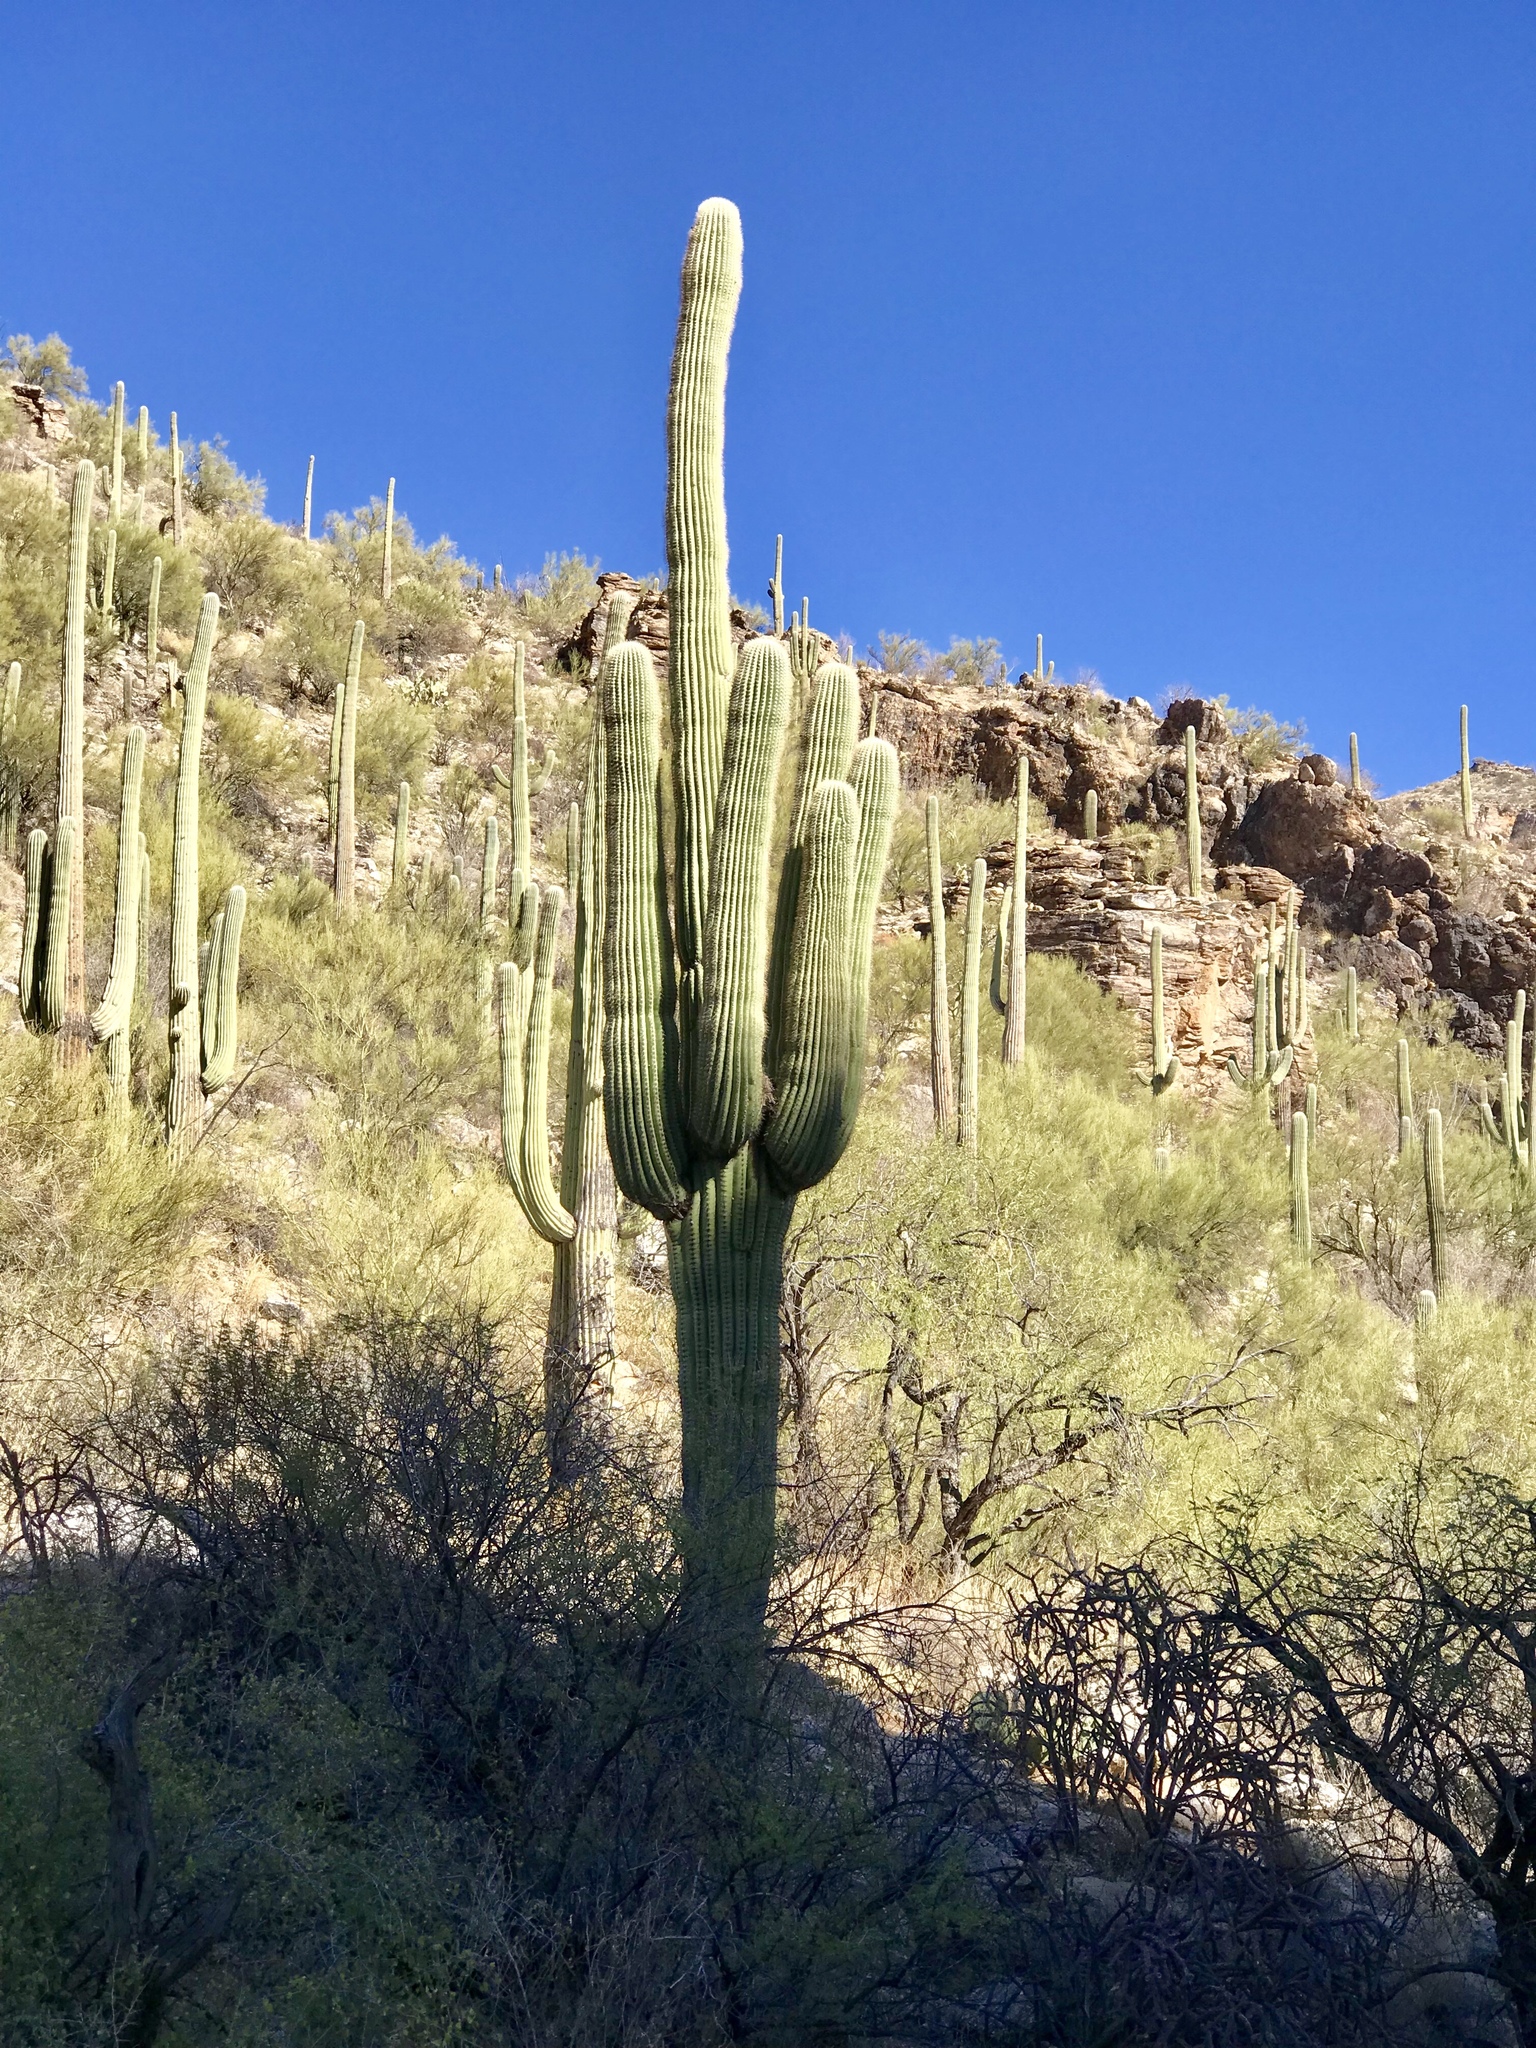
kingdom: Plantae
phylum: Tracheophyta
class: Magnoliopsida
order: Caryophyllales
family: Cactaceae
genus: Carnegiea
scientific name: Carnegiea gigantea
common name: Saguaro
